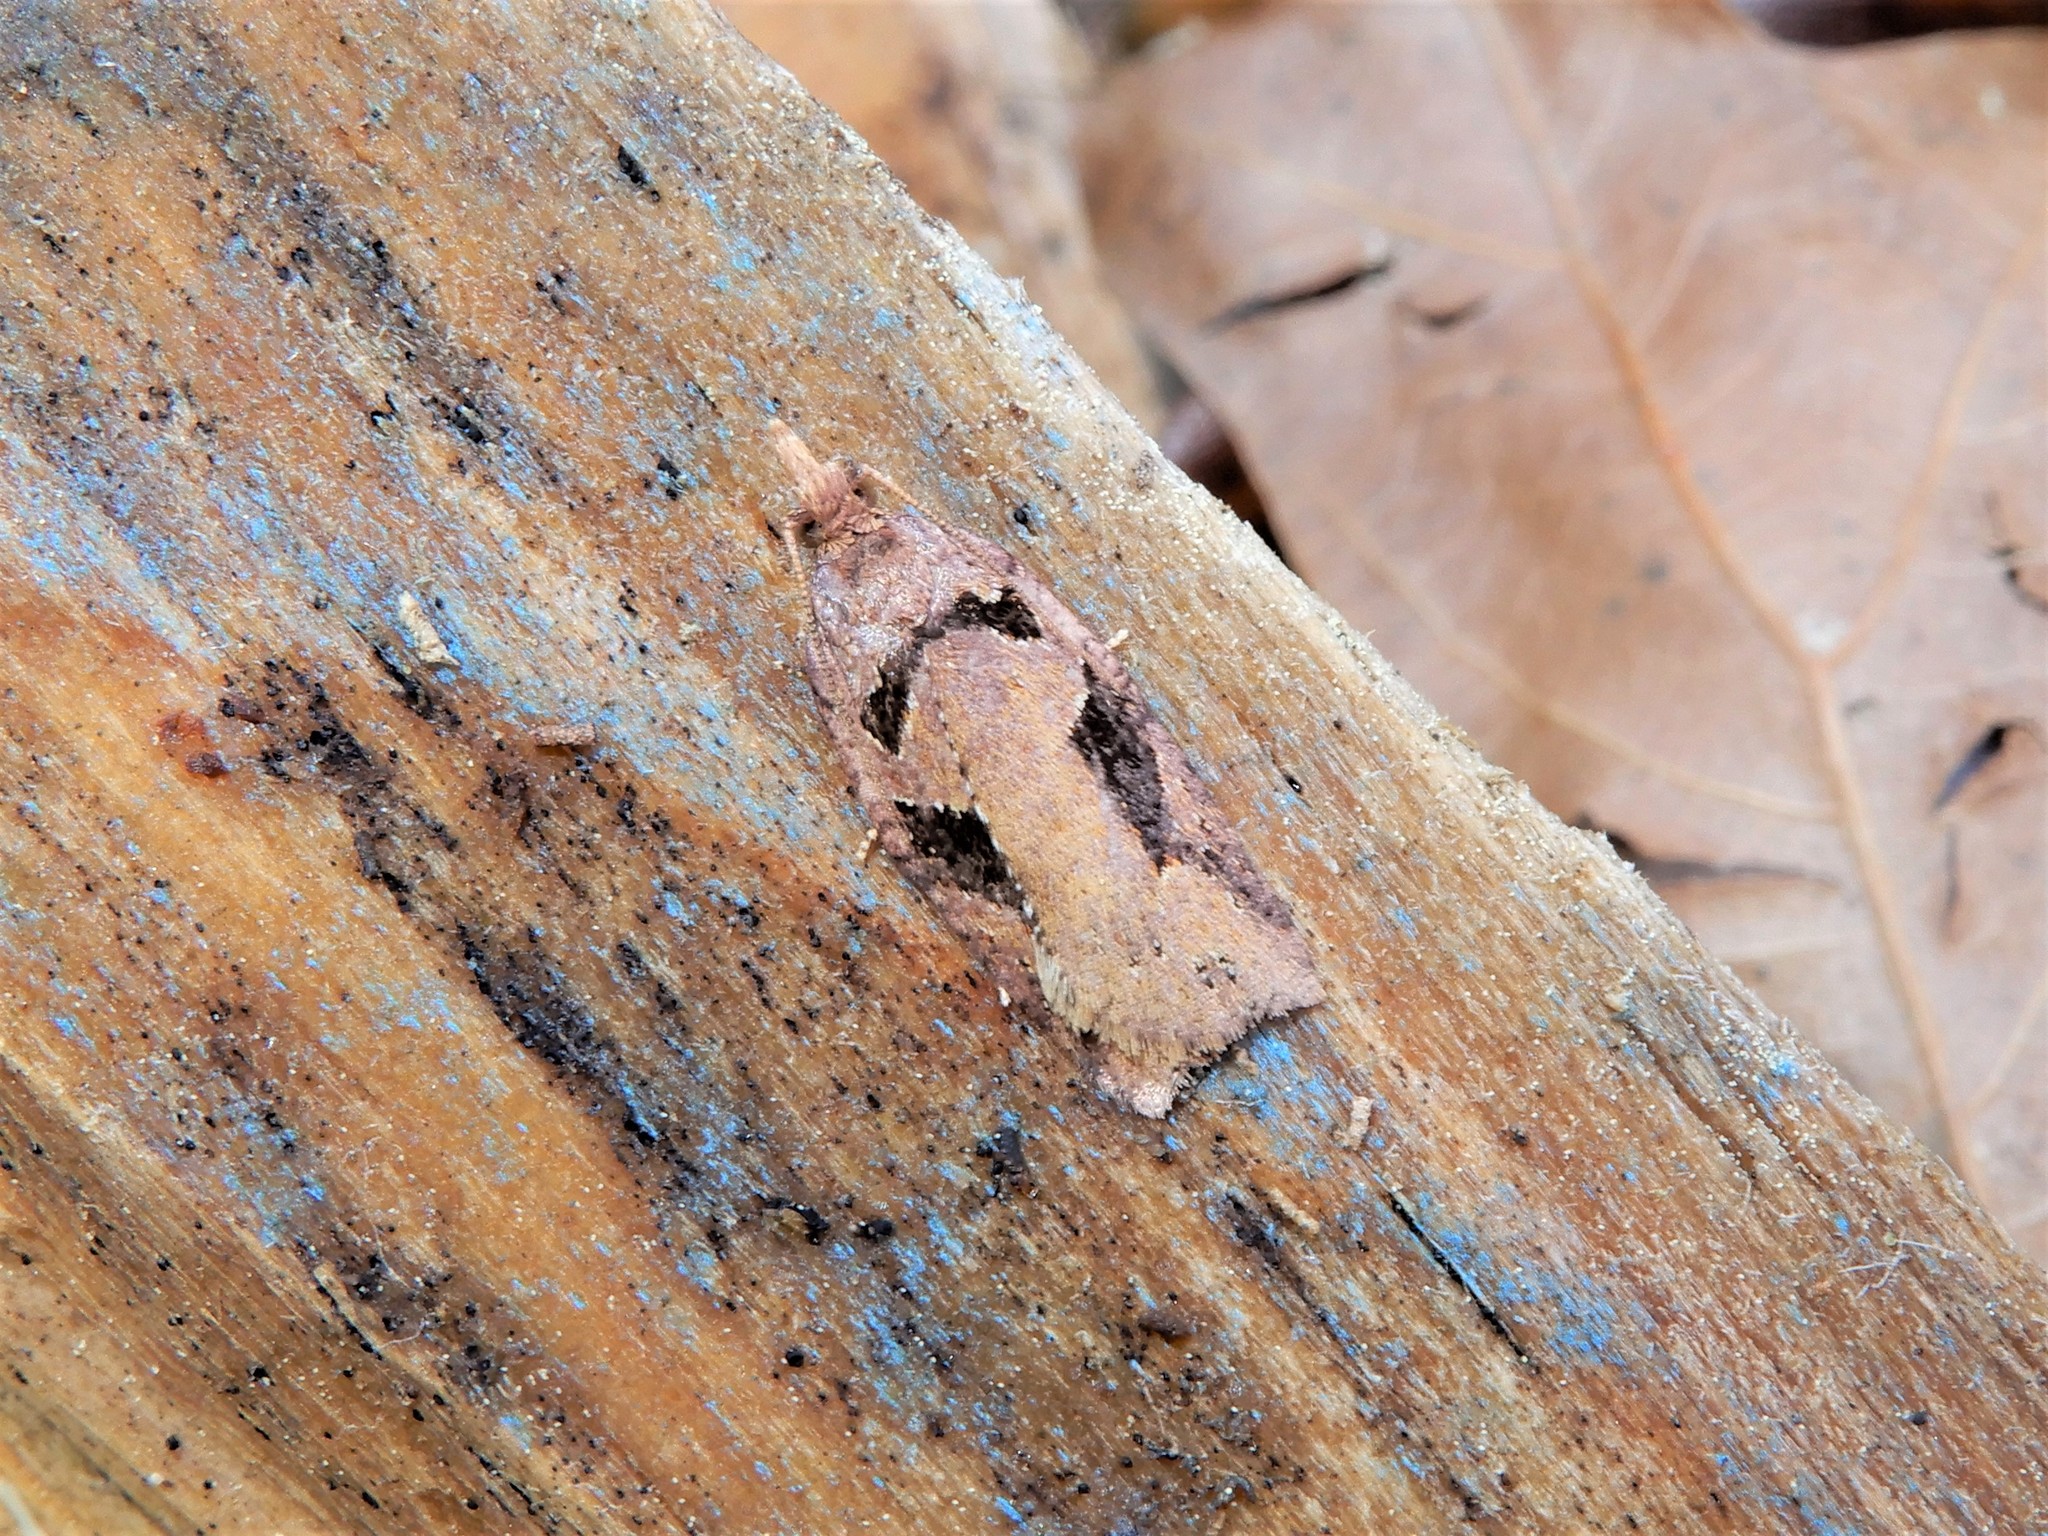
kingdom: Animalia
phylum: Arthropoda
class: Insecta
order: Lepidoptera
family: Tortricidae
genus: Ctenopseustis
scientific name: Ctenopseustis fraterna
